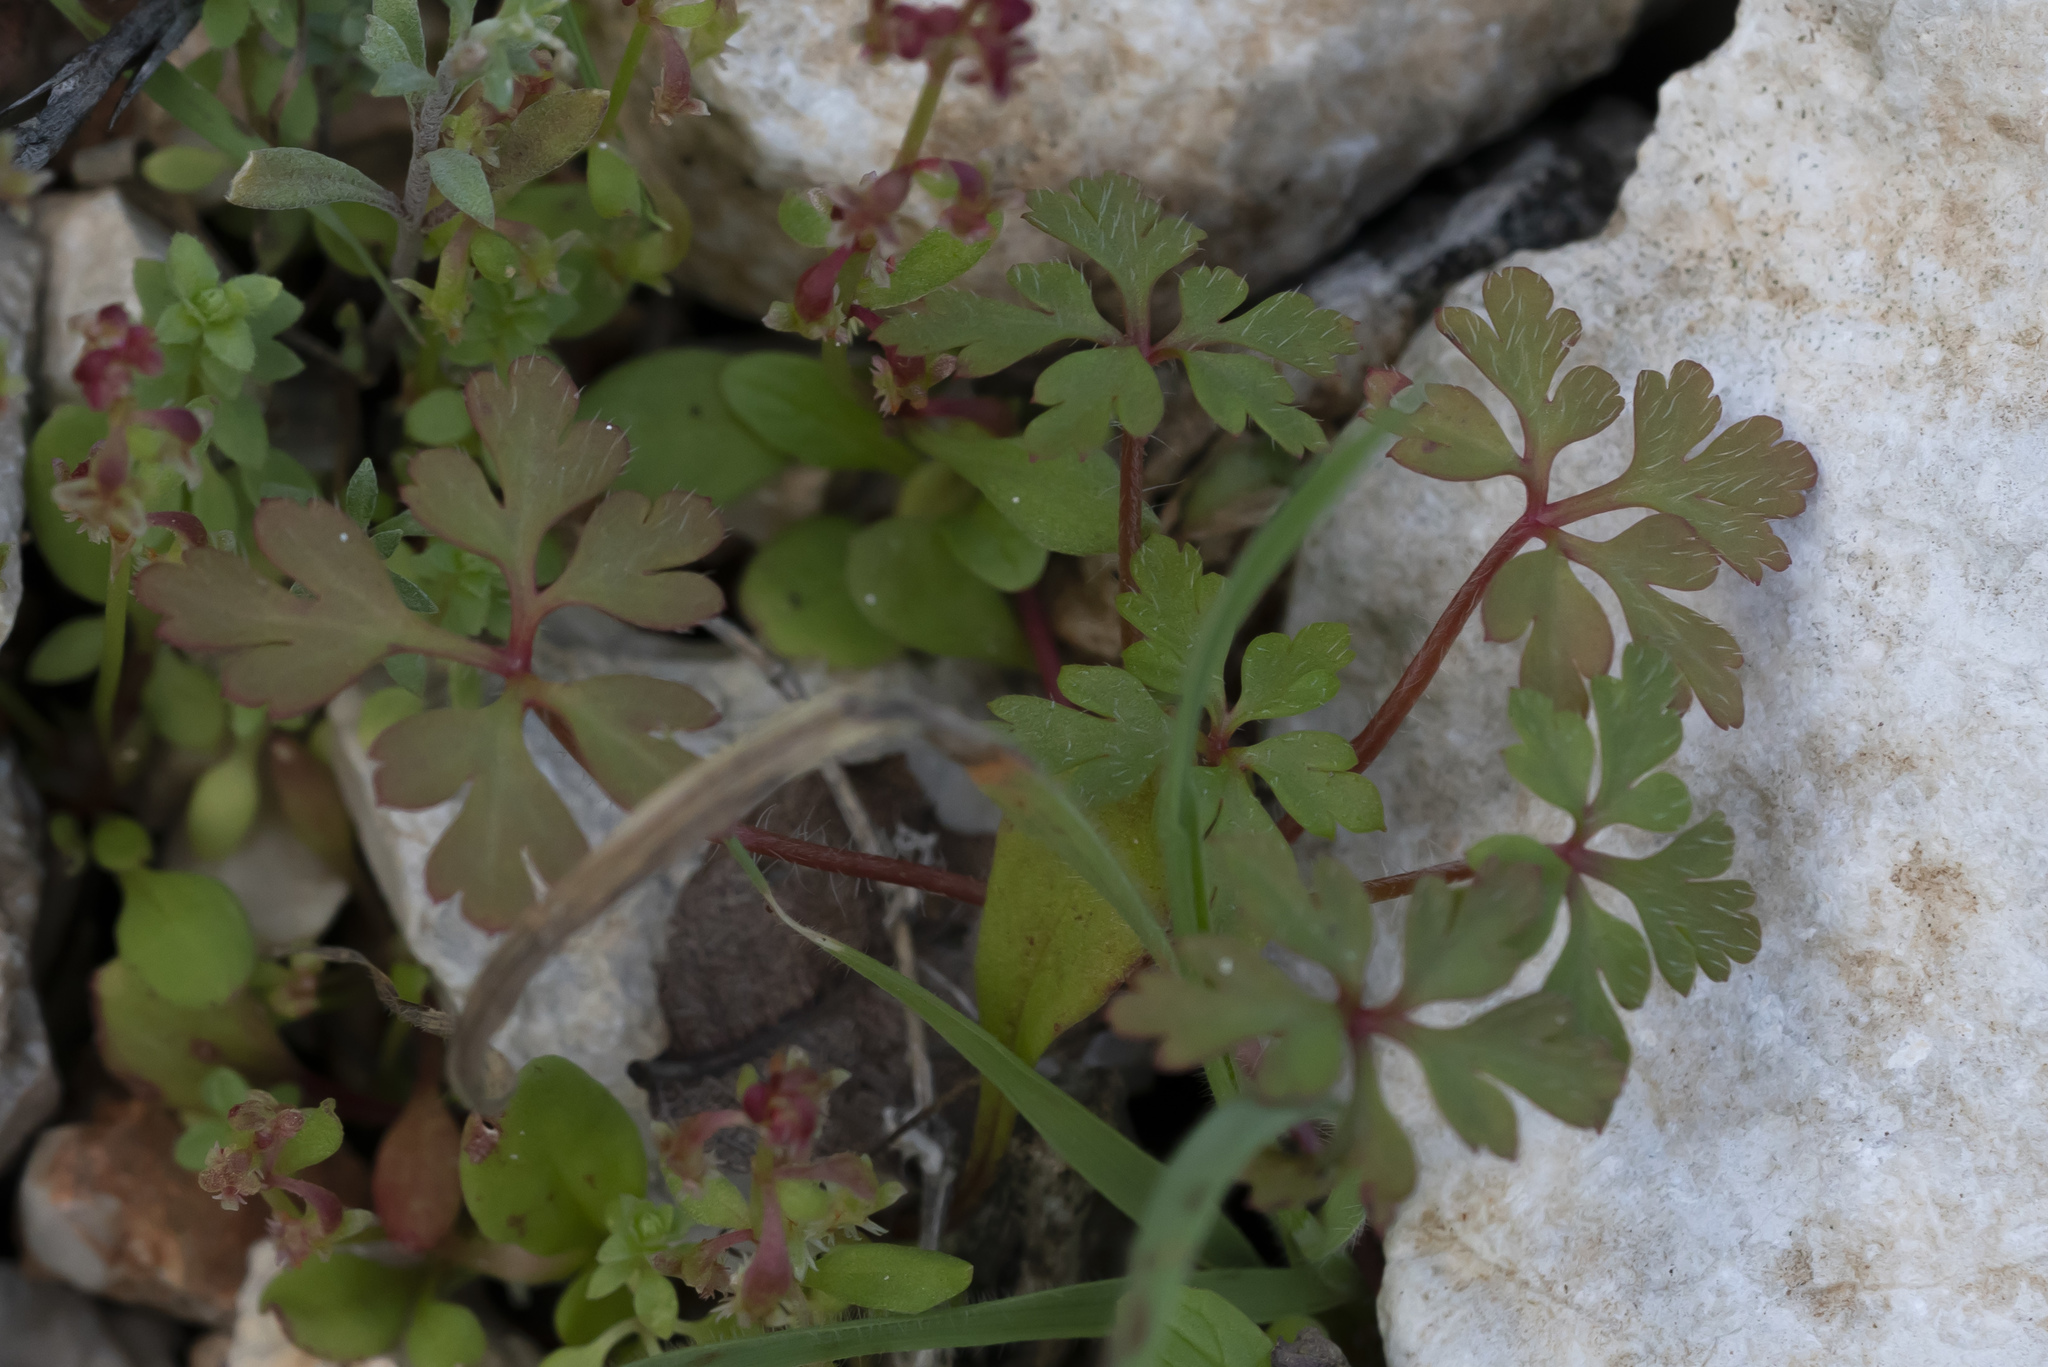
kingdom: Plantae
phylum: Tracheophyta
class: Magnoliopsida
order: Geraniales
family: Geraniaceae
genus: Geranium
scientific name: Geranium purpureum
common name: Little-robin
